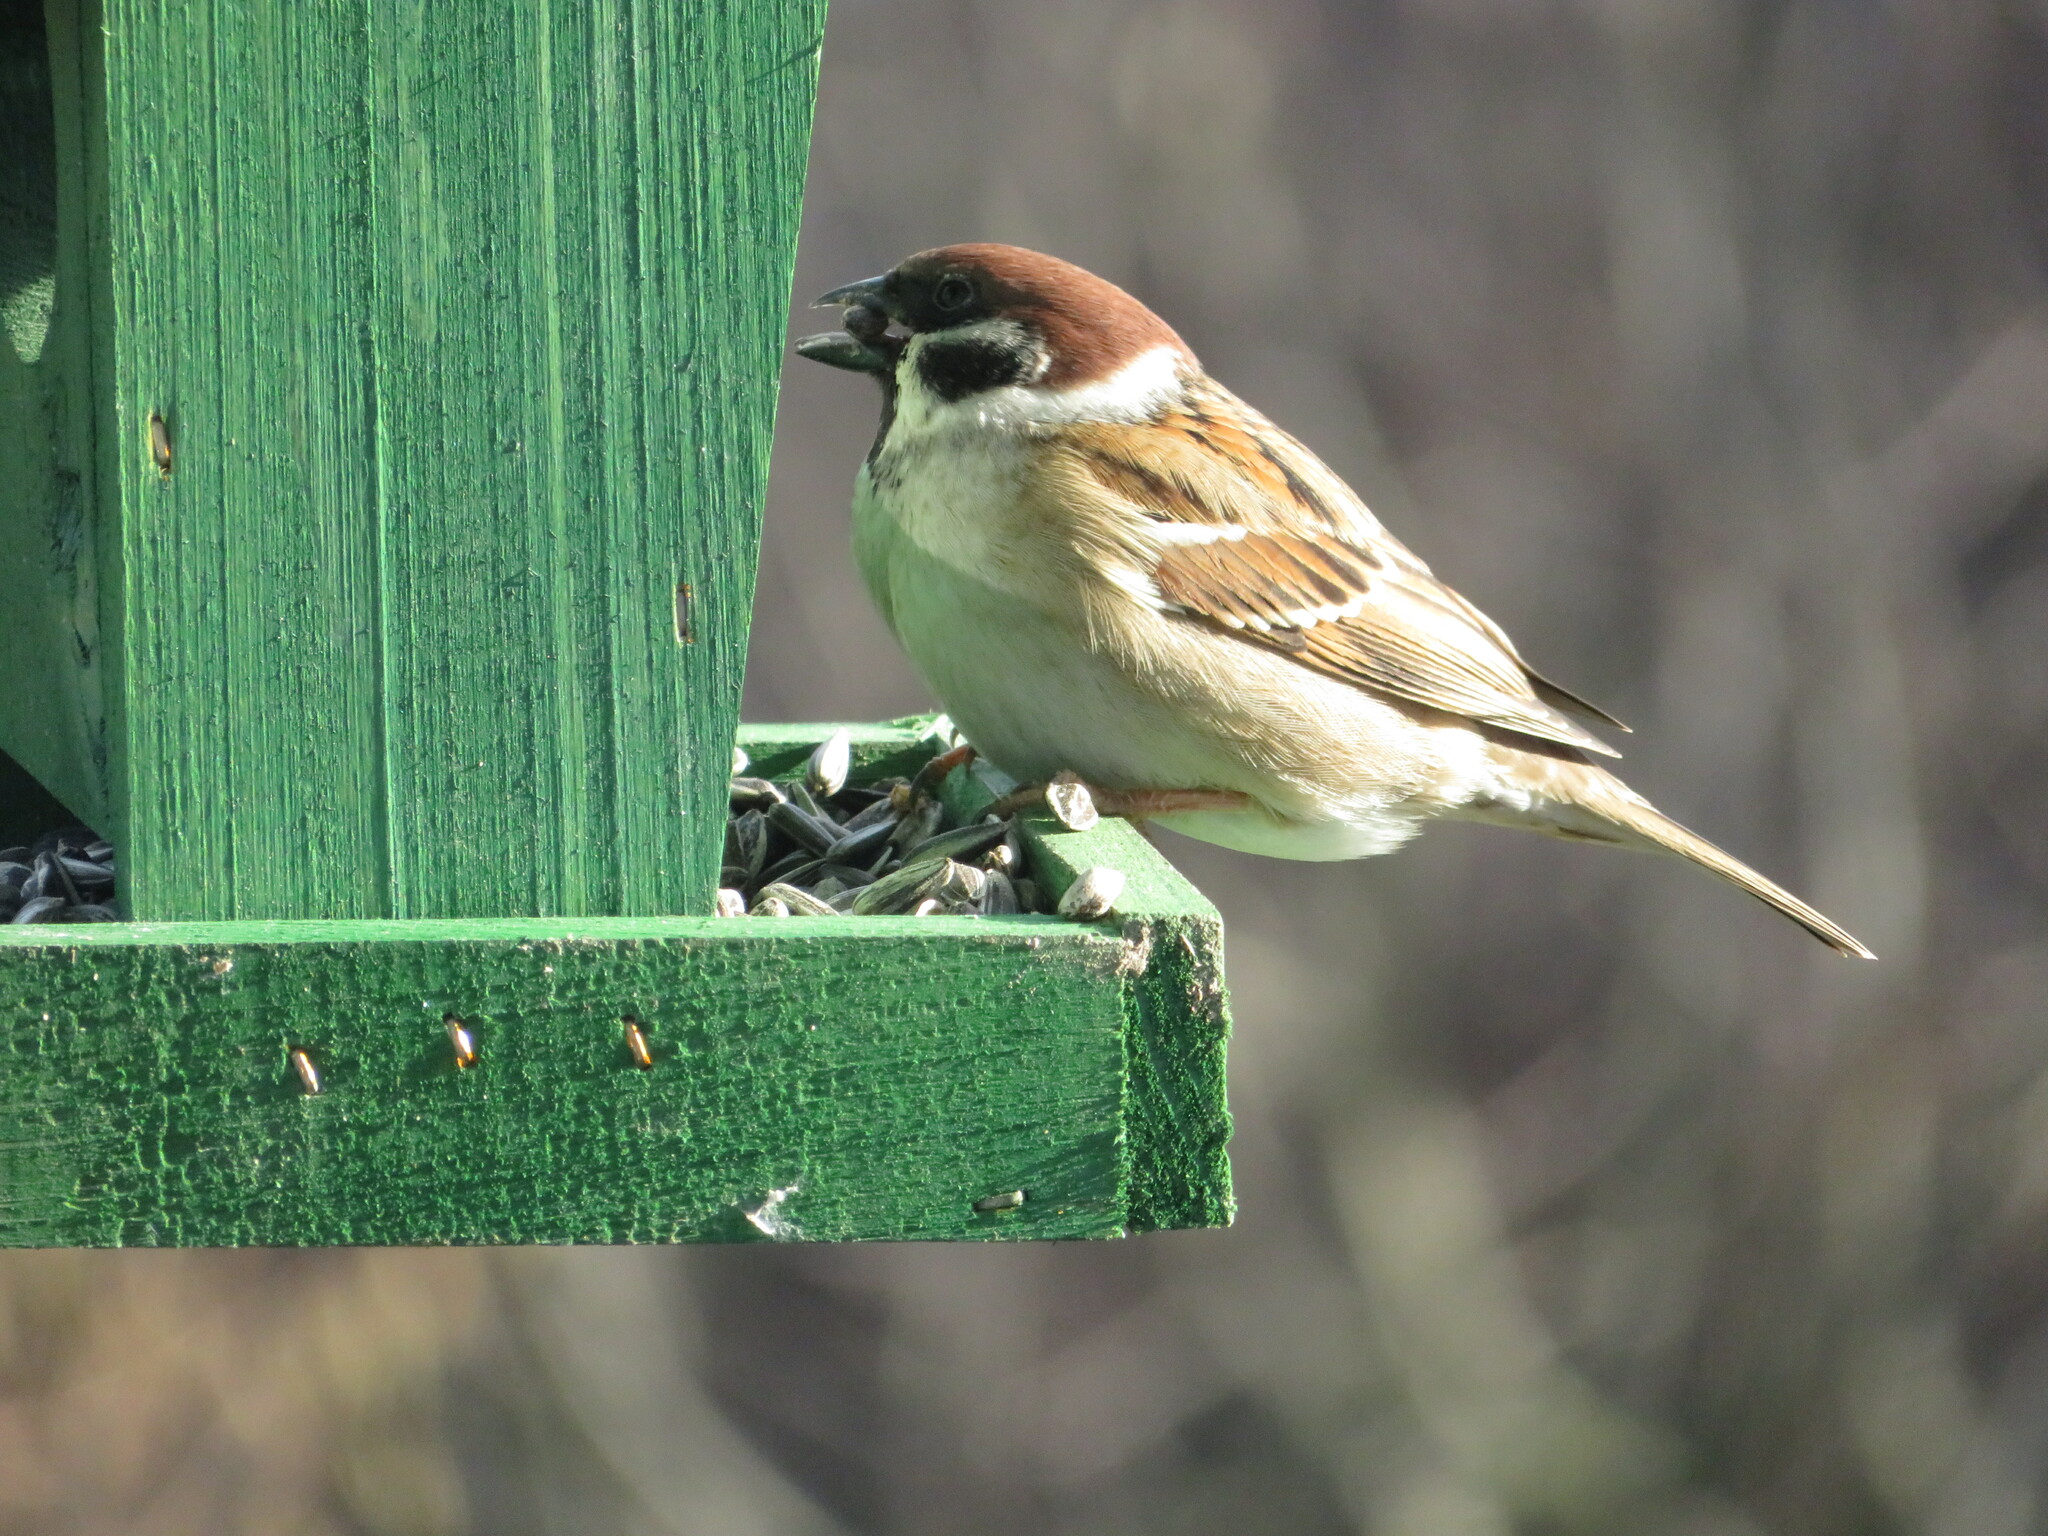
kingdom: Animalia
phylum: Chordata
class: Aves
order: Passeriformes
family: Passeridae
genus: Passer
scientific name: Passer montanus
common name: Eurasian tree sparrow
